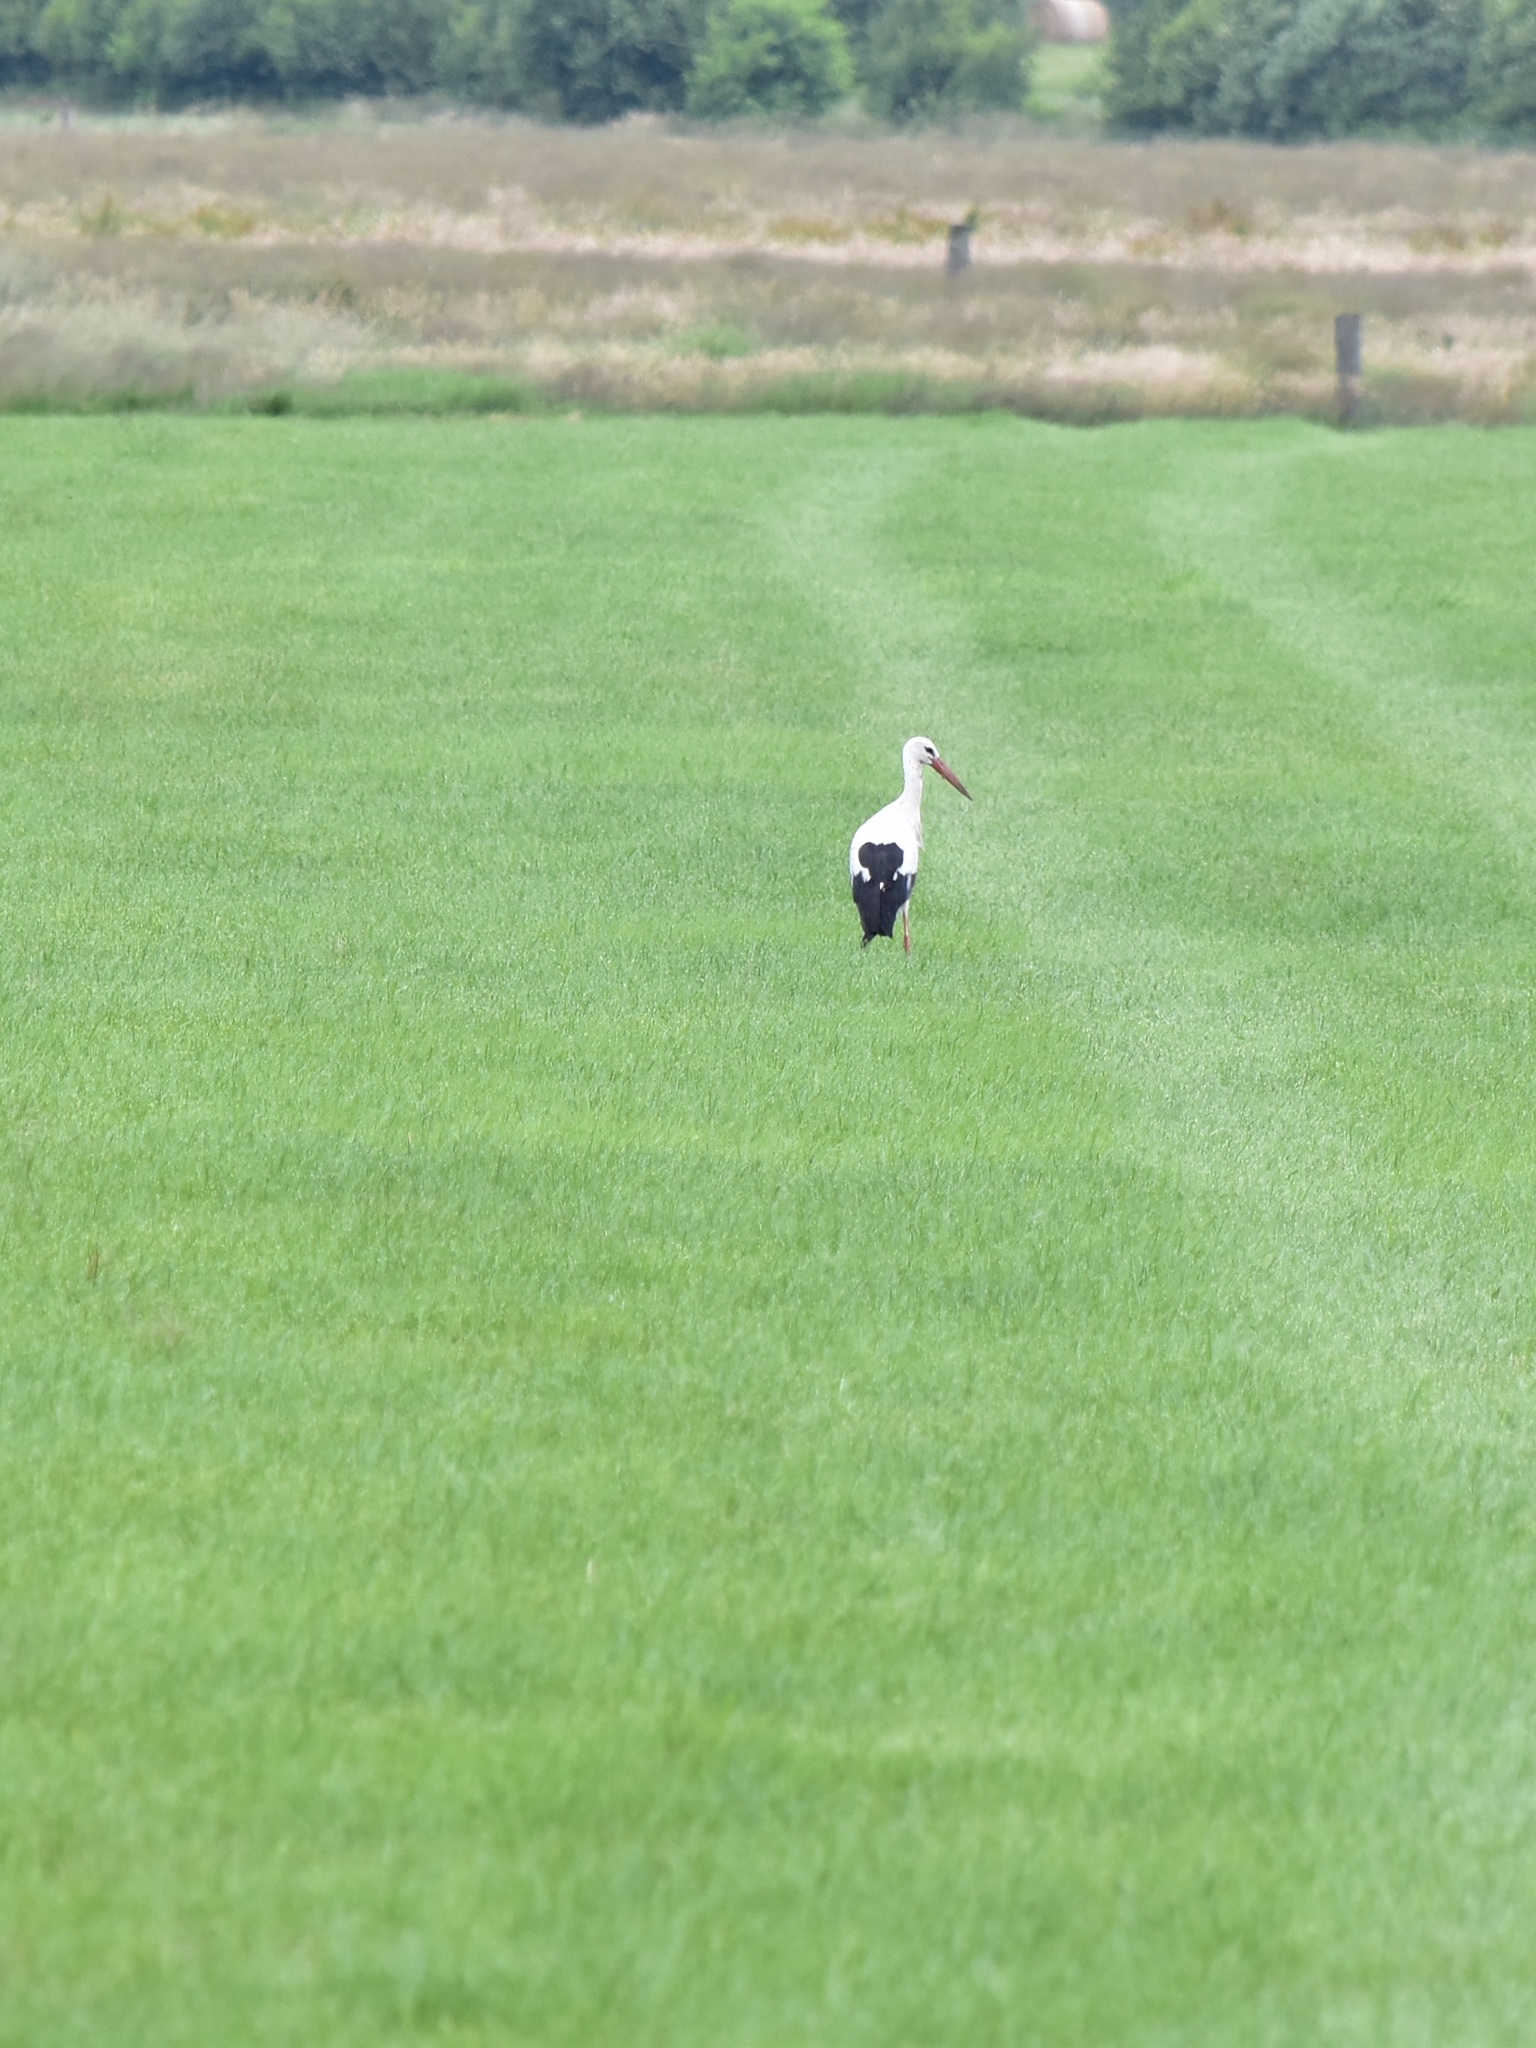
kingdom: Animalia
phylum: Chordata
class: Aves
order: Ciconiiformes
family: Ciconiidae
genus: Ciconia
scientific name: Ciconia ciconia
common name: White stork
